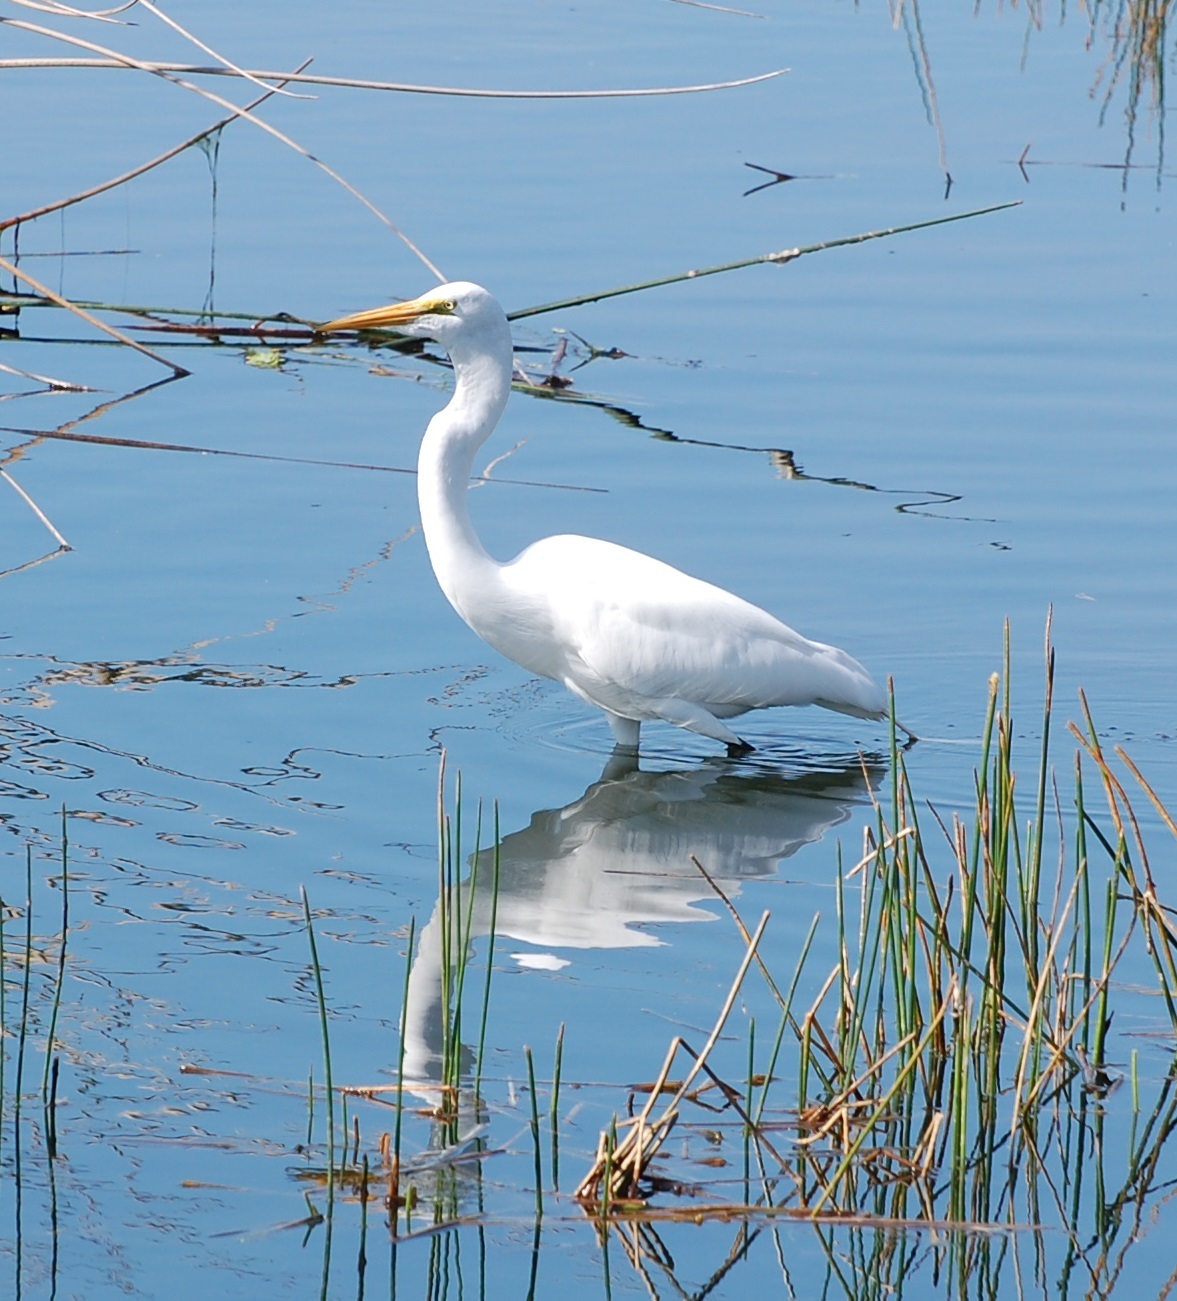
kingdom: Animalia
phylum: Chordata
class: Aves
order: Pelecaniformes
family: Ardeidae
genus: Ardea
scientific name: Ardea alba
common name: Great egret
